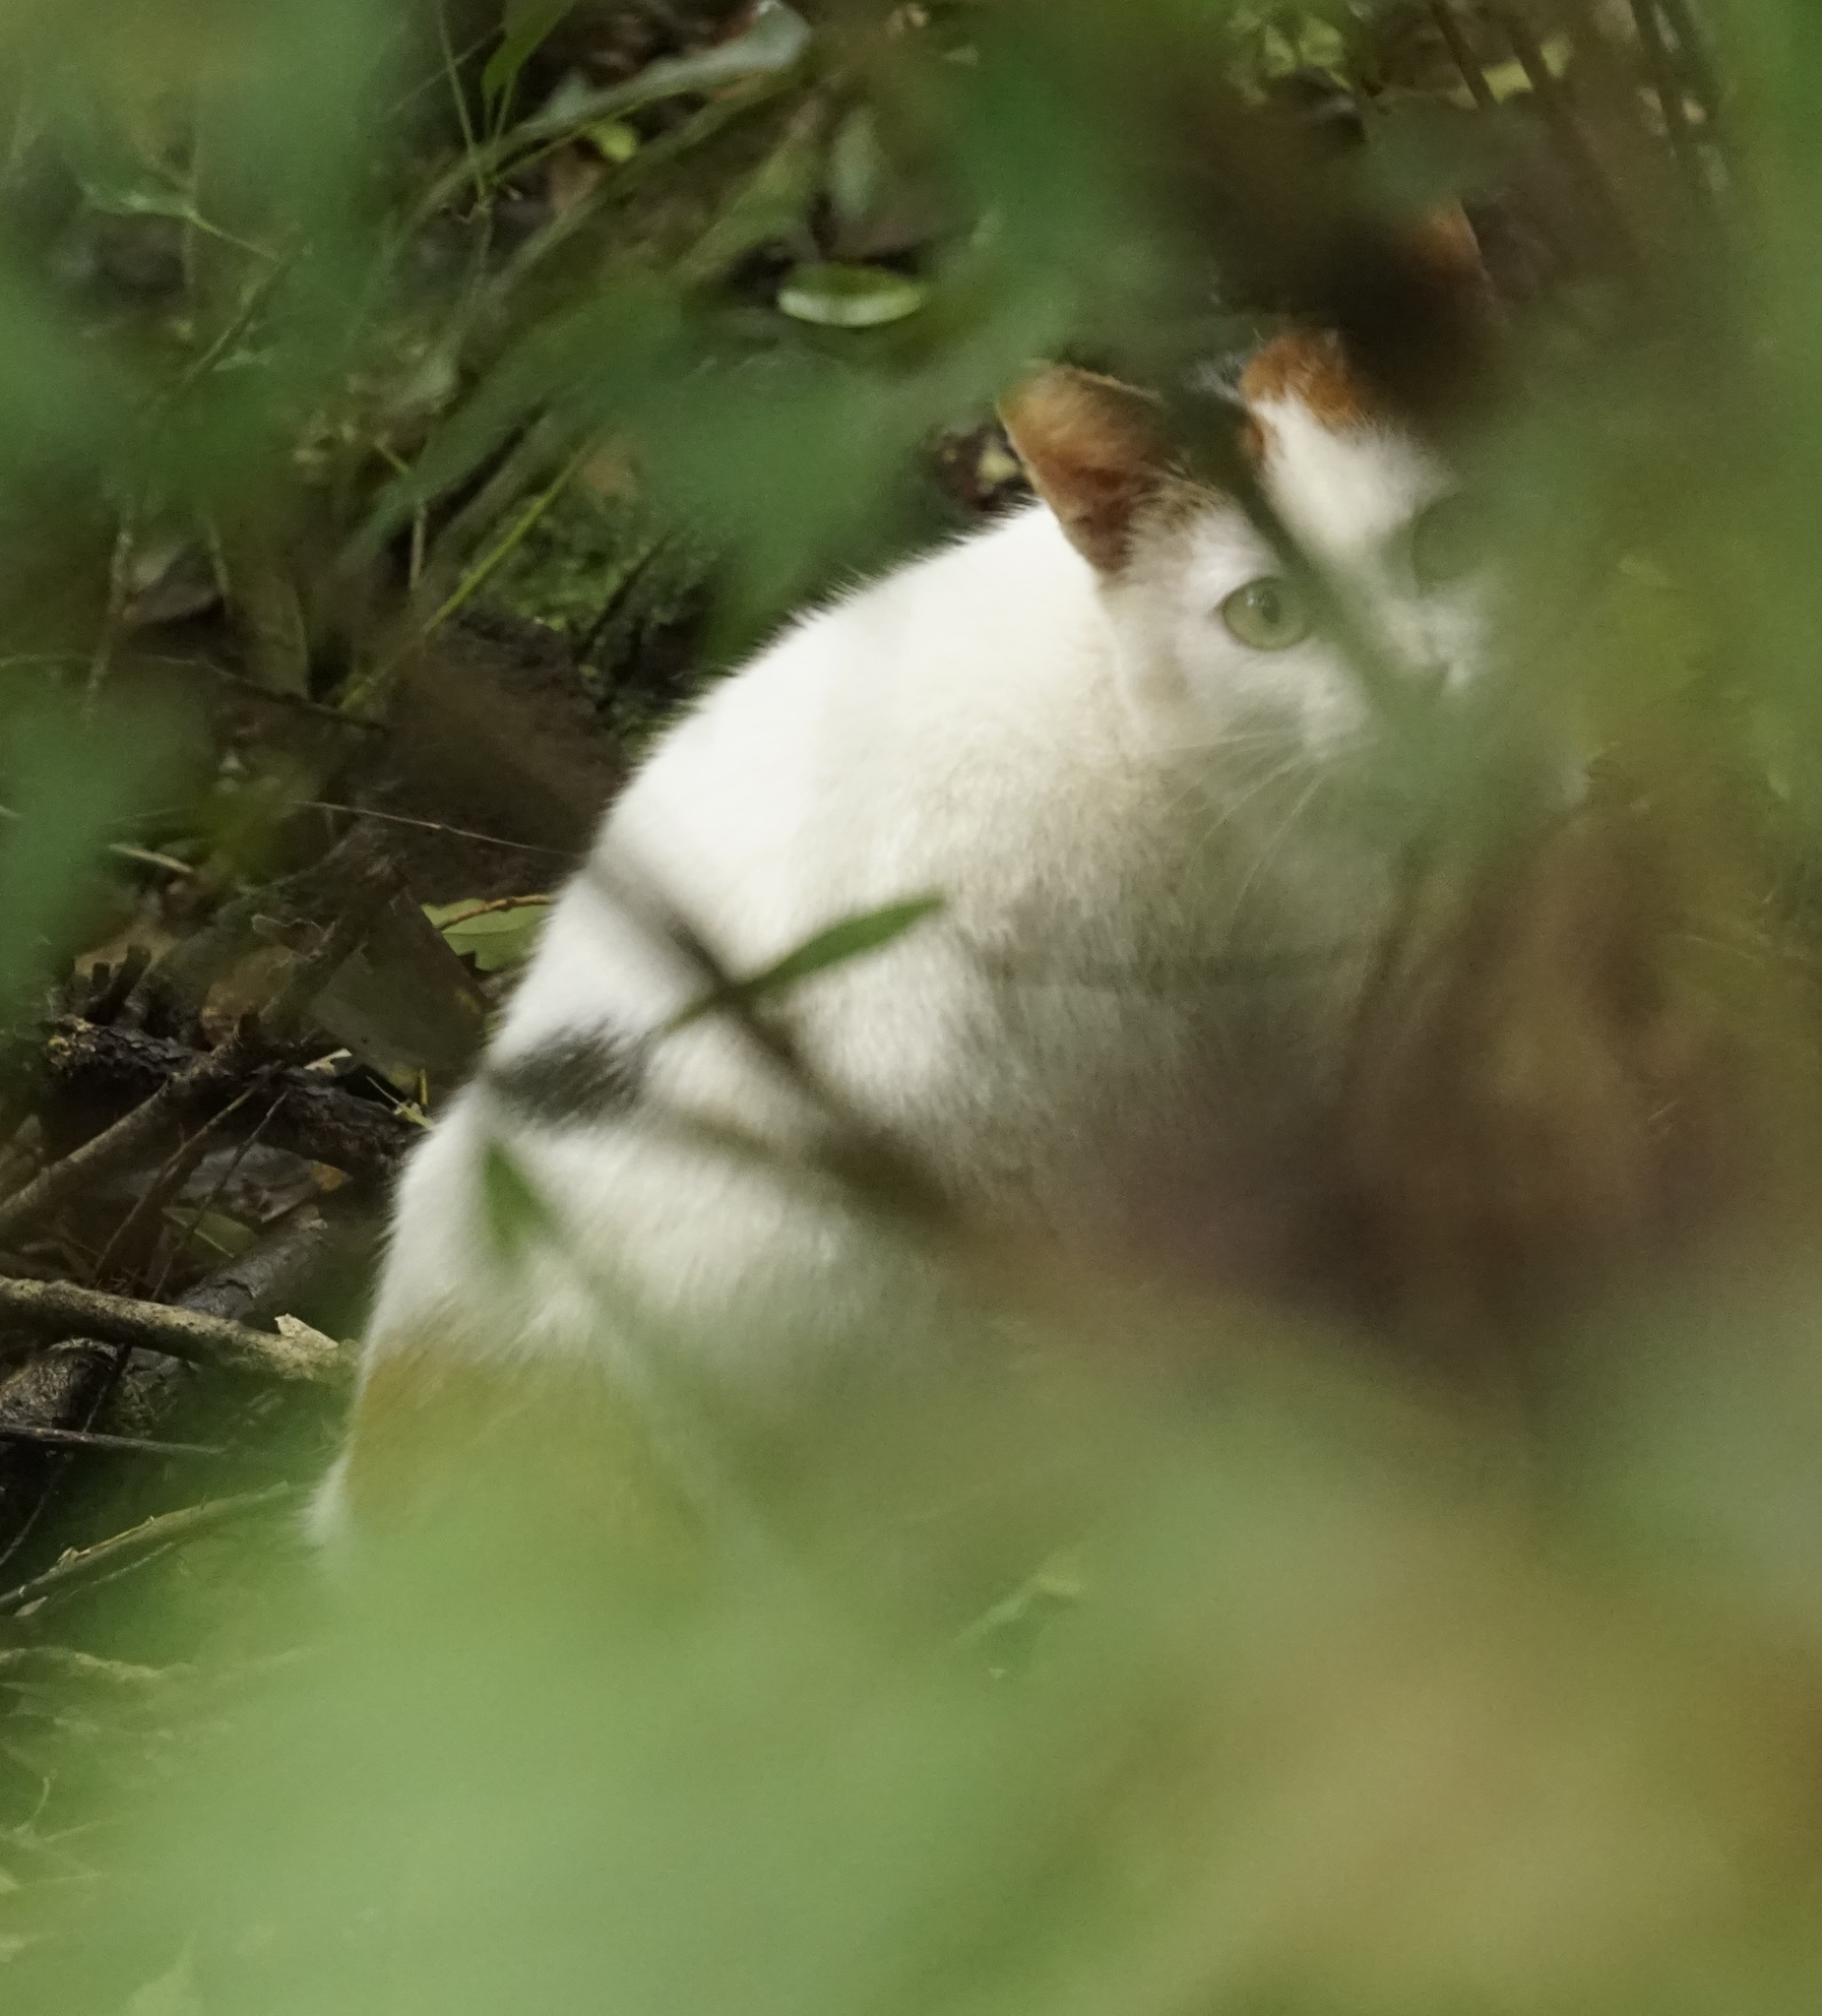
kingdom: Animalia
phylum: Chordata
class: Mammalia
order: Carnivora
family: Felidae
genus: Felis
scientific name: Felis catus
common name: Domestic cat
